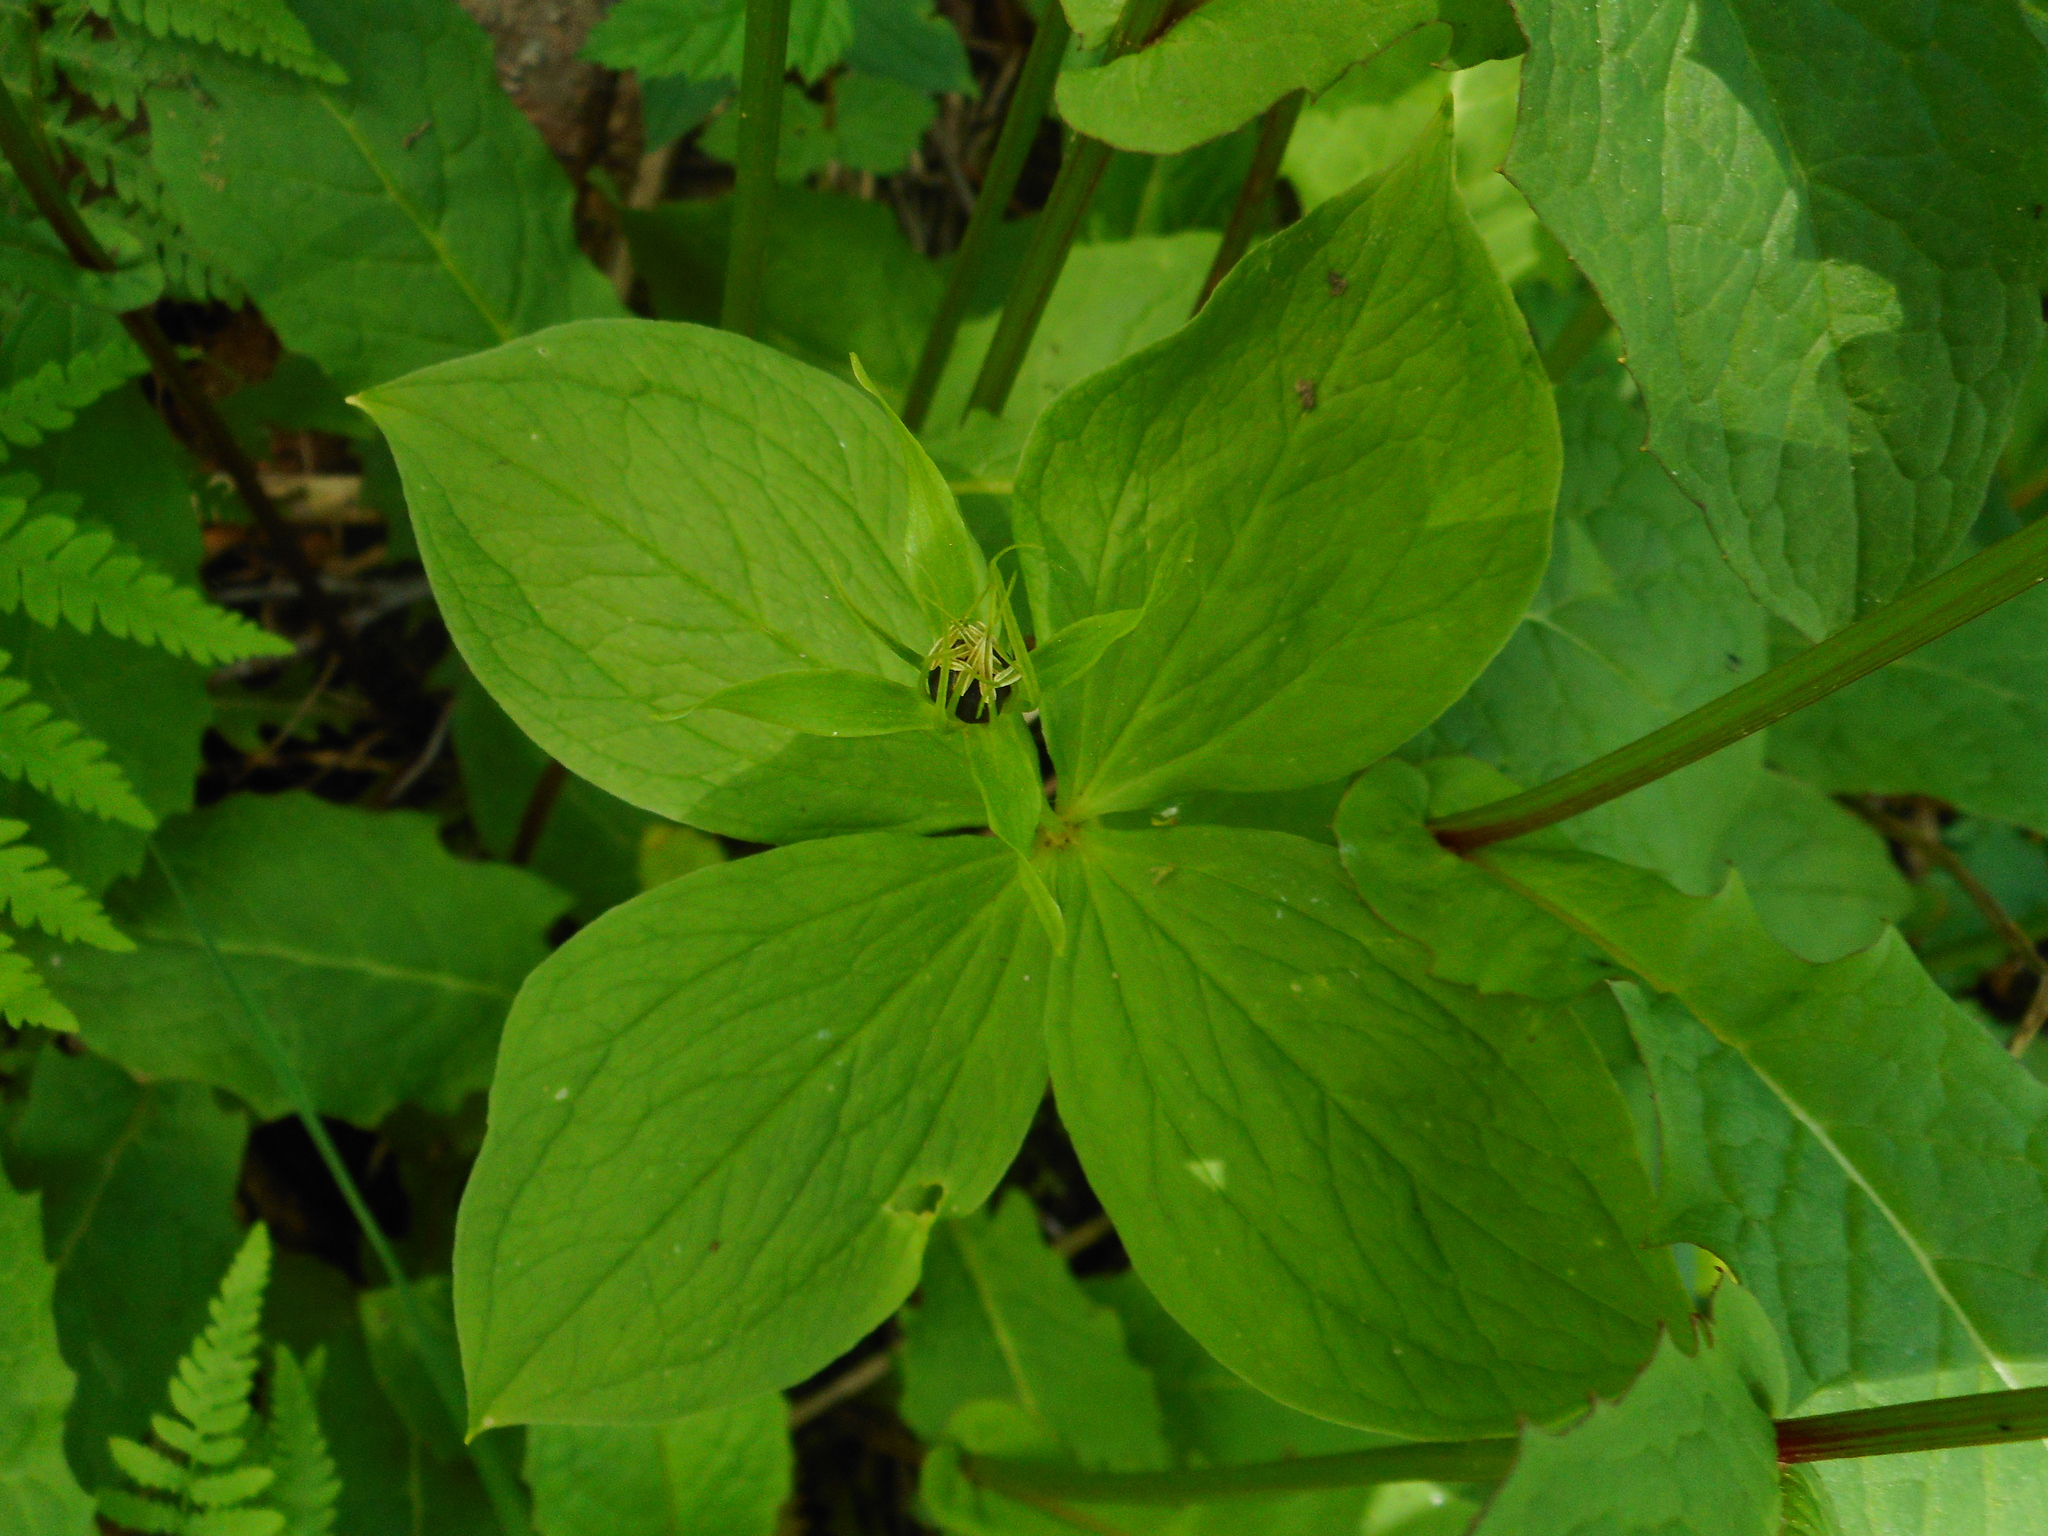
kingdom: Plantae
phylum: Tracheophyta
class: Liliopsida
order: Liliales
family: Melanthiaceae
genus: Paris
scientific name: Paris quadrifolia
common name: Herb-paris
